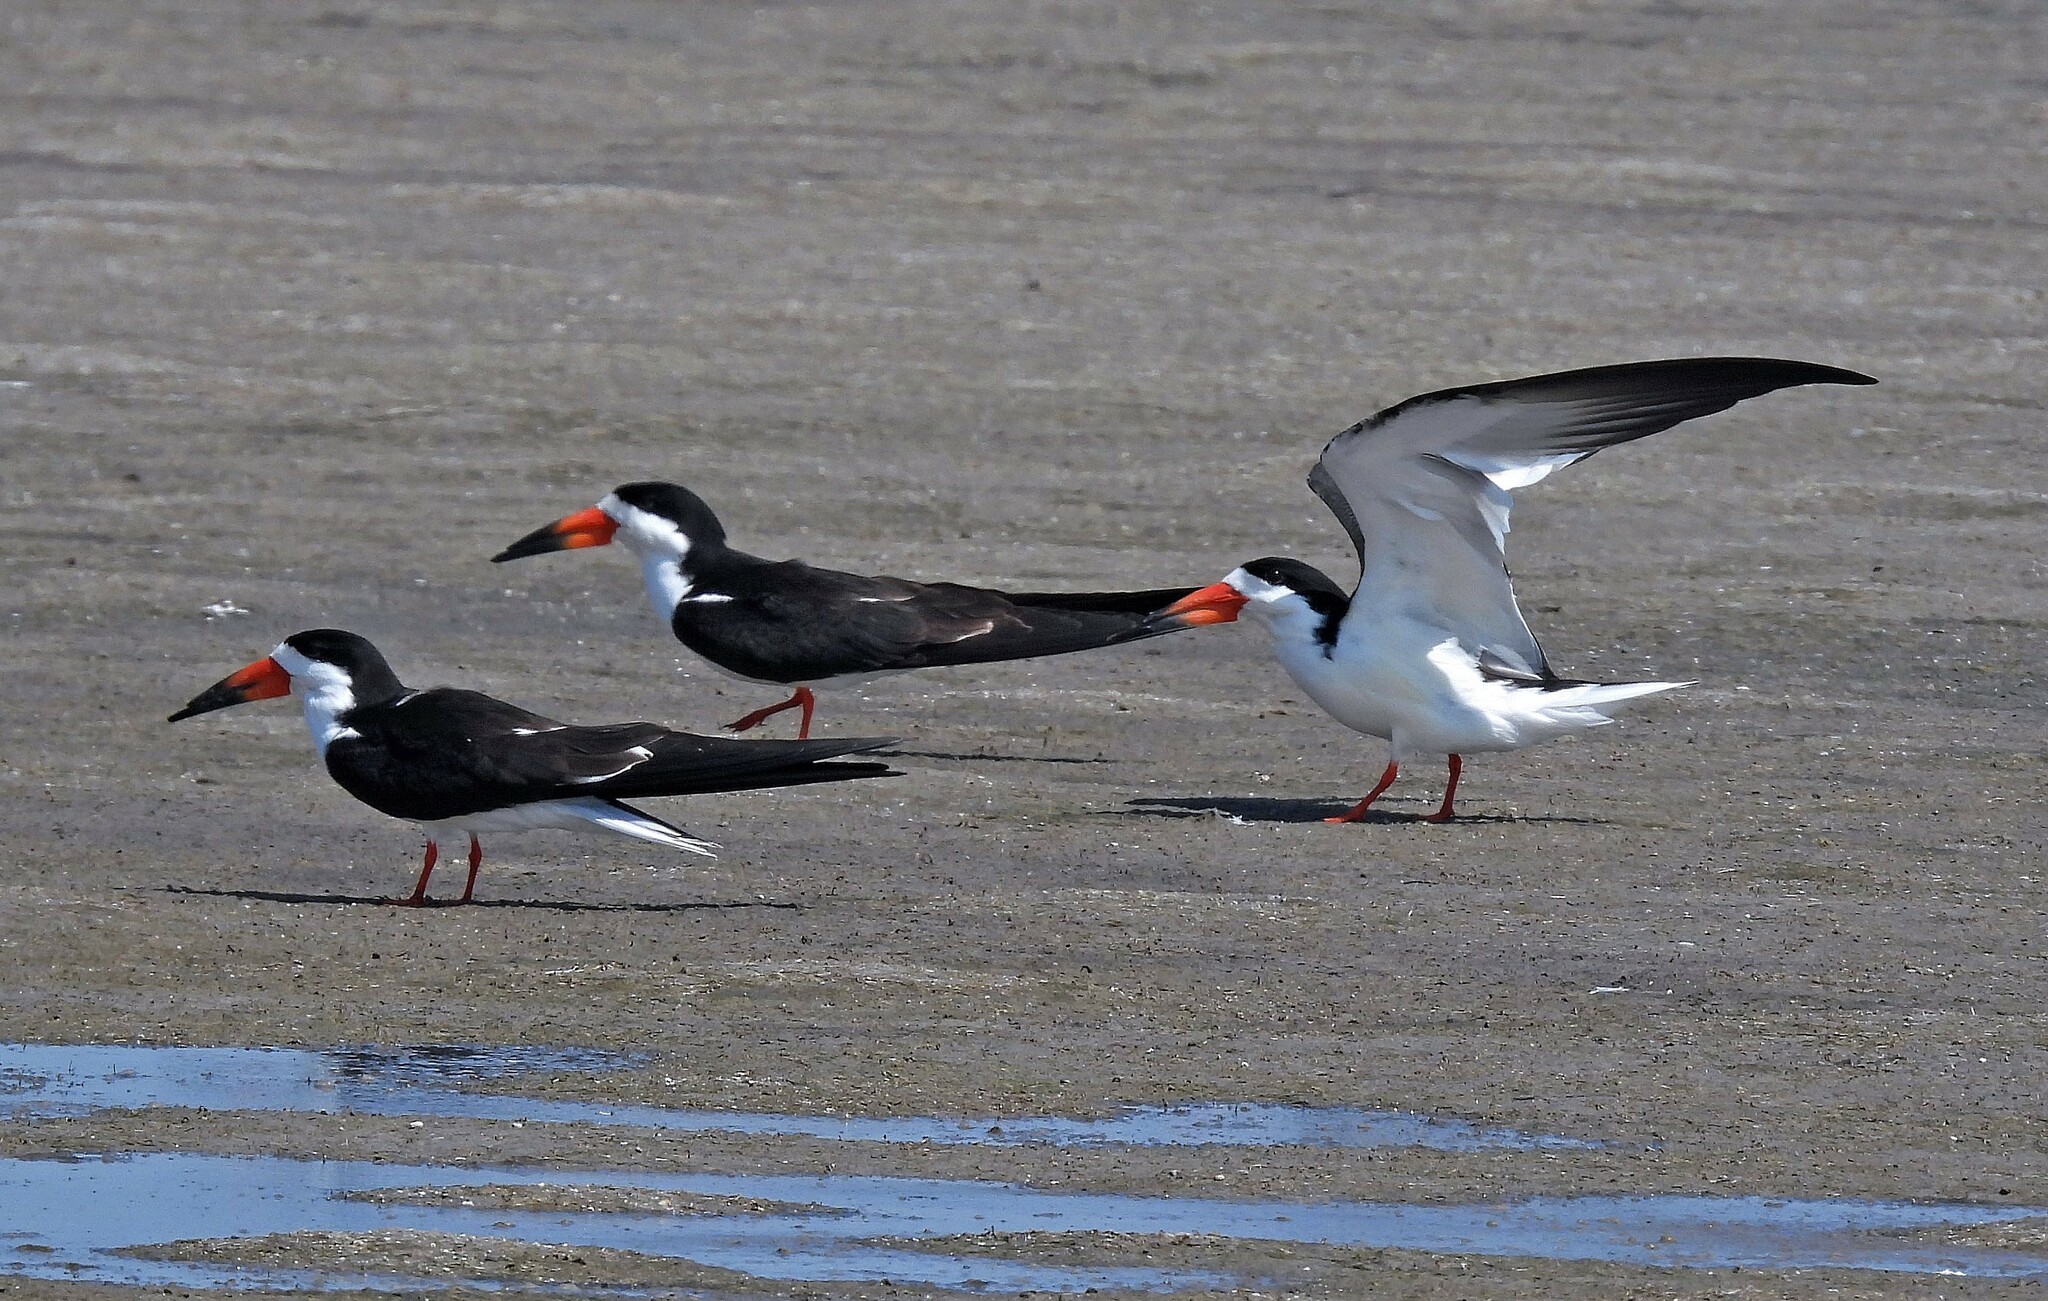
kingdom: Animalia
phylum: Chordata
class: Aves
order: Charadriiformes
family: Laridae
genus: Rynchops
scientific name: Rynchops niger
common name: Black skimmer
